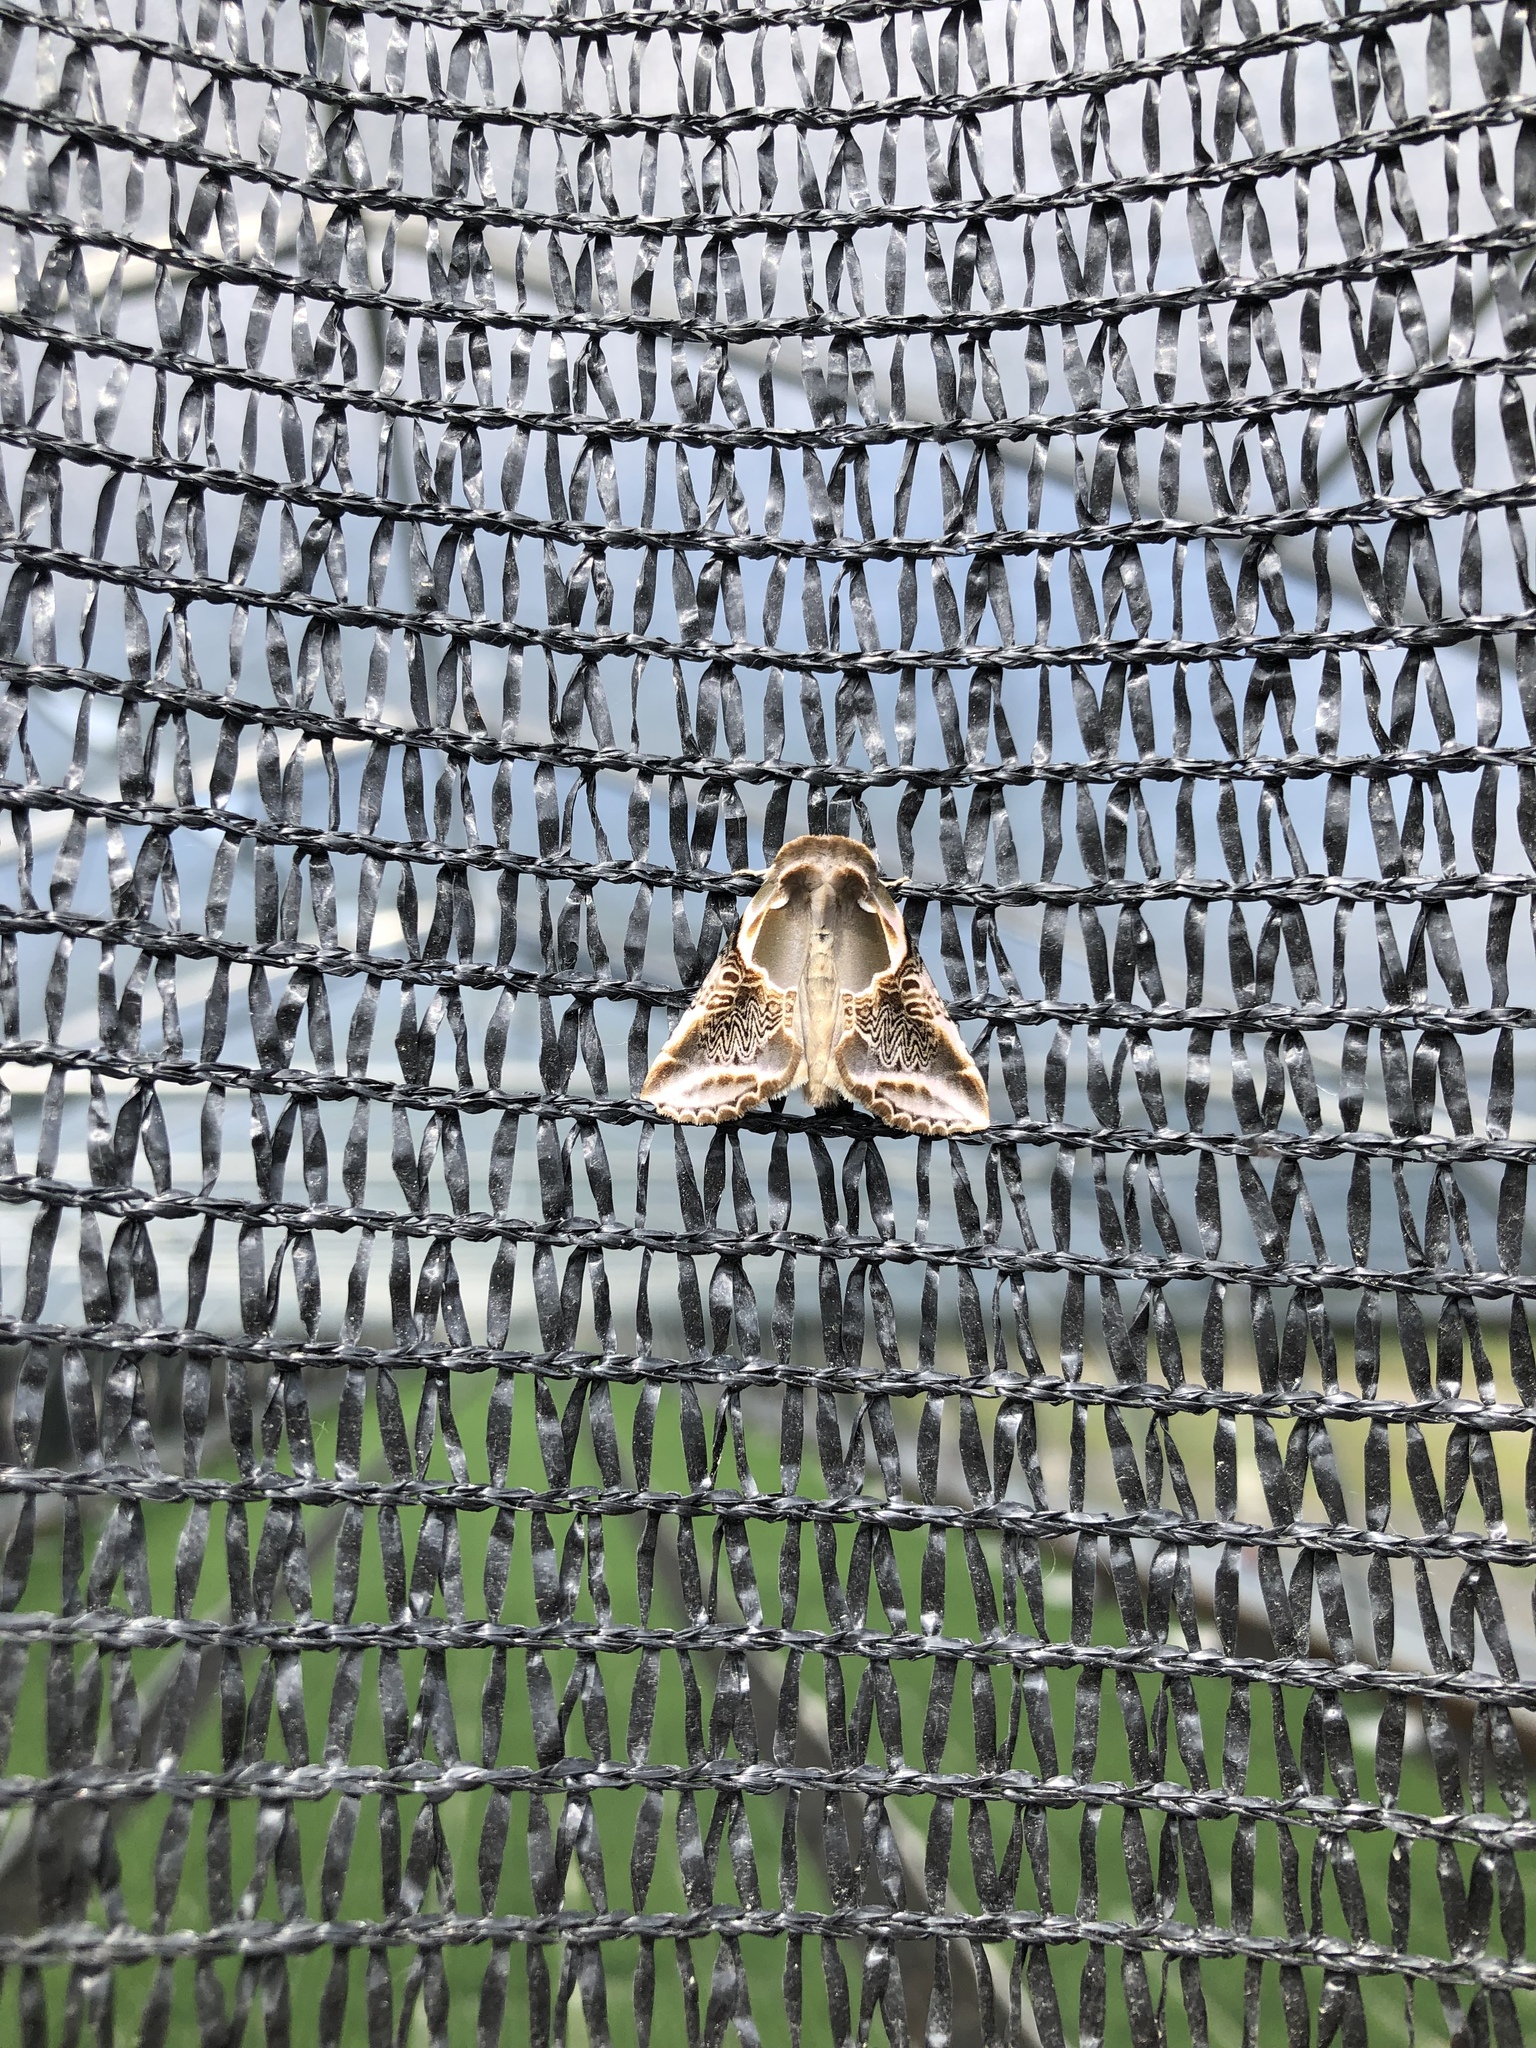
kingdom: Animalia
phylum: Arthropoda
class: Insecta
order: Lepidoptera
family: Drepanidae
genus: Habrosyne
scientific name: Habrosyne scripta
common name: Lettered habrosyne moth
